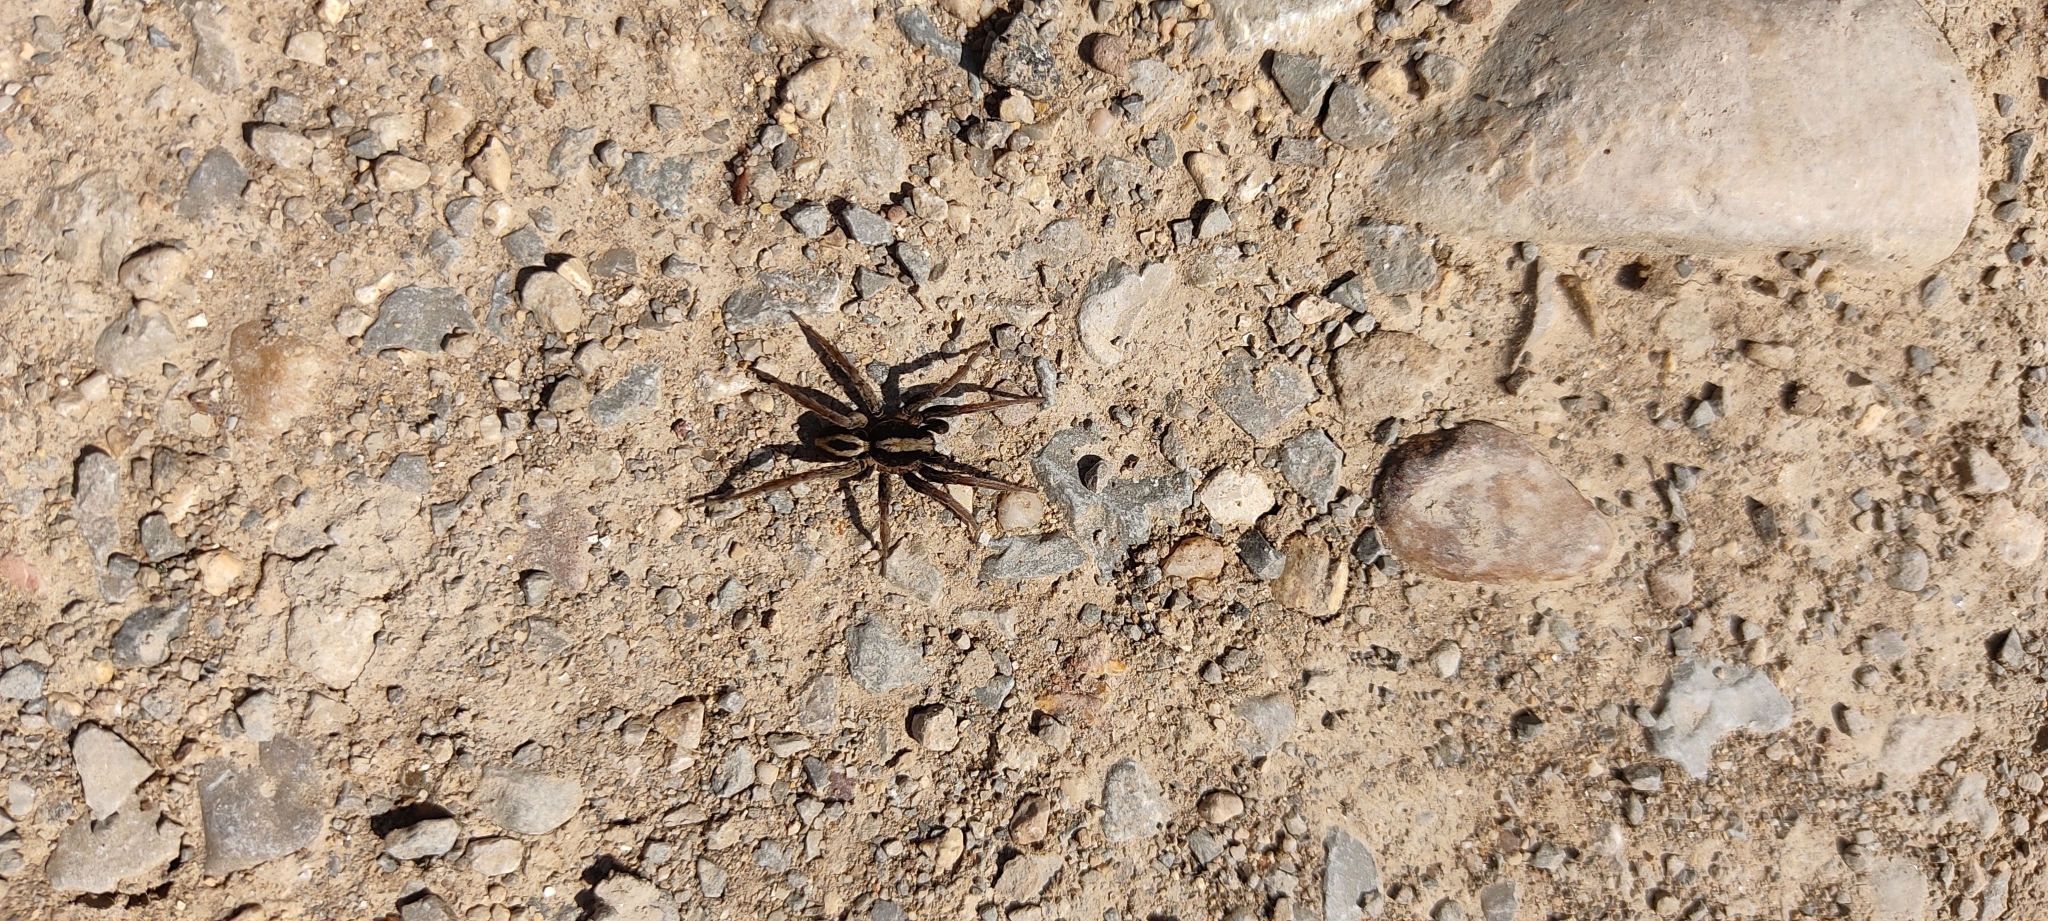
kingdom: Animalia
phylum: Arthropoda
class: Arachnida
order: Araneae
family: Lycosidae
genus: Alopecosa
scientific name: Alopecosa albofasciata
